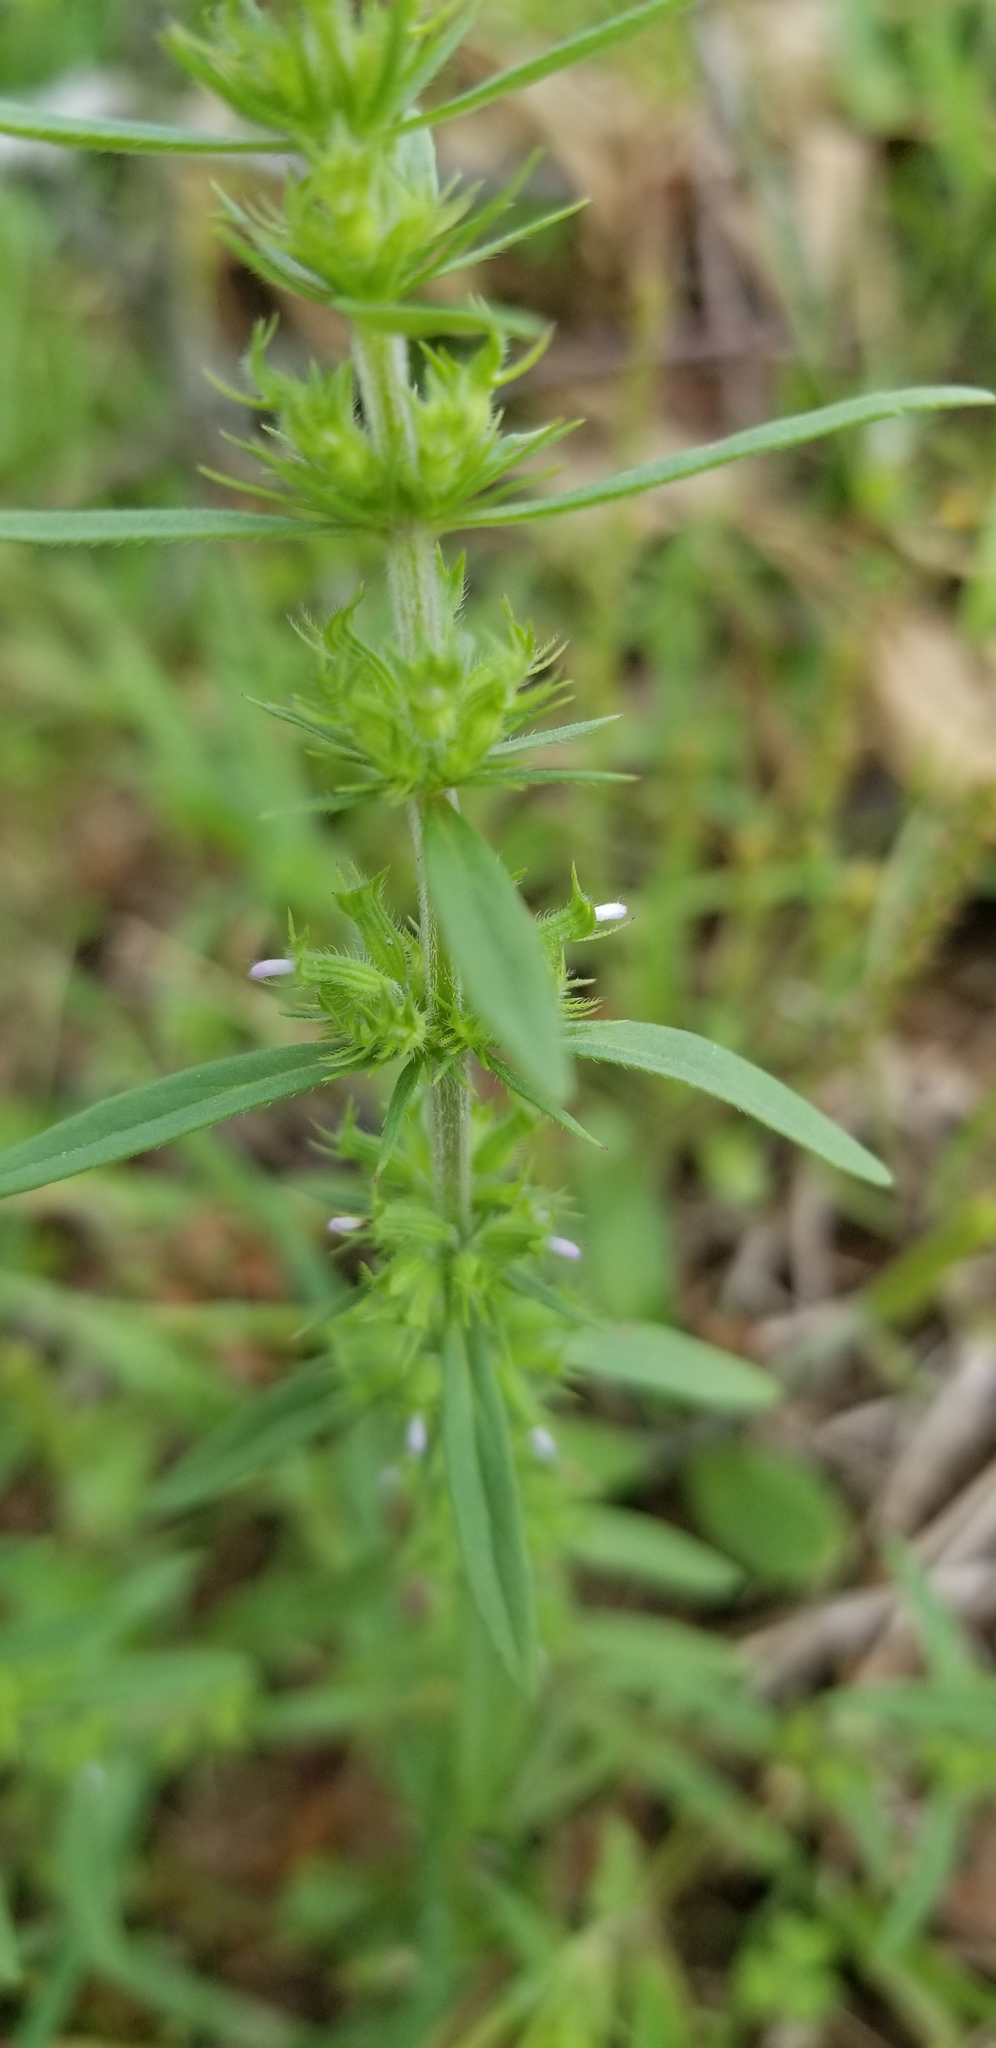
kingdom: Plantae
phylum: Tracheophyta
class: Magnoliopsida
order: Lamiales
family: Lamiaceae
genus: Hedeoma
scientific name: Hedeoma hispida
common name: Mock pennyroyal
